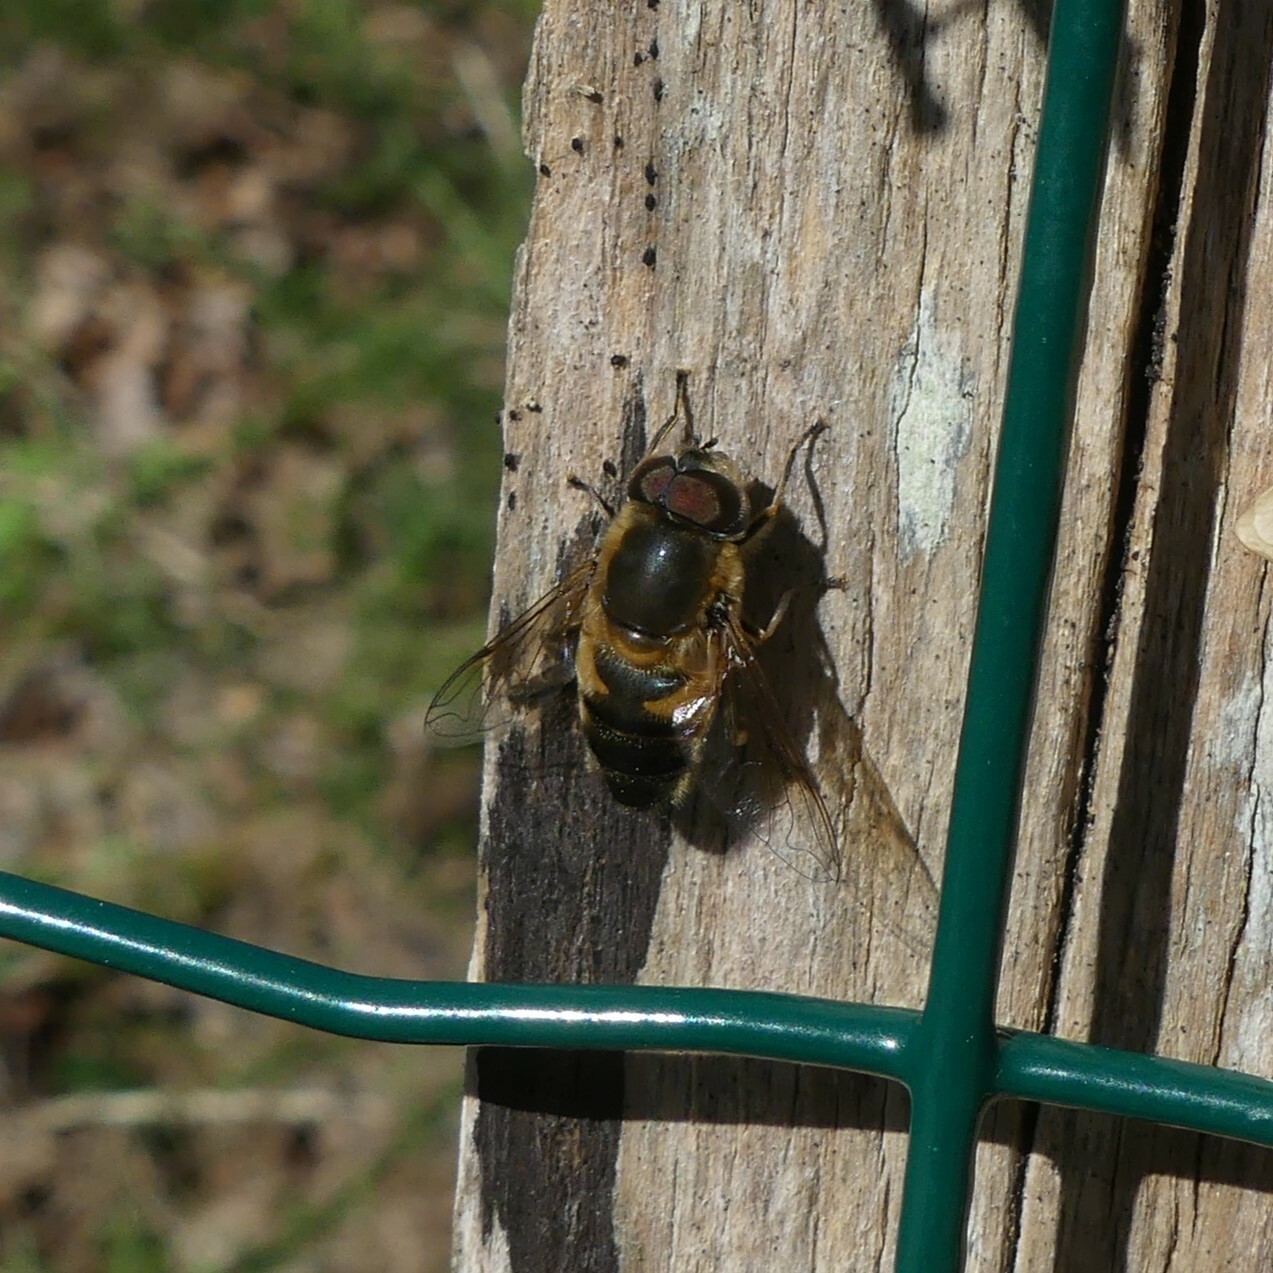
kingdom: Animalia
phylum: Arthropoda
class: Insecta
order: Diptera
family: Syrphidae
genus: Eristalis
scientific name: Eristalis pertinax
